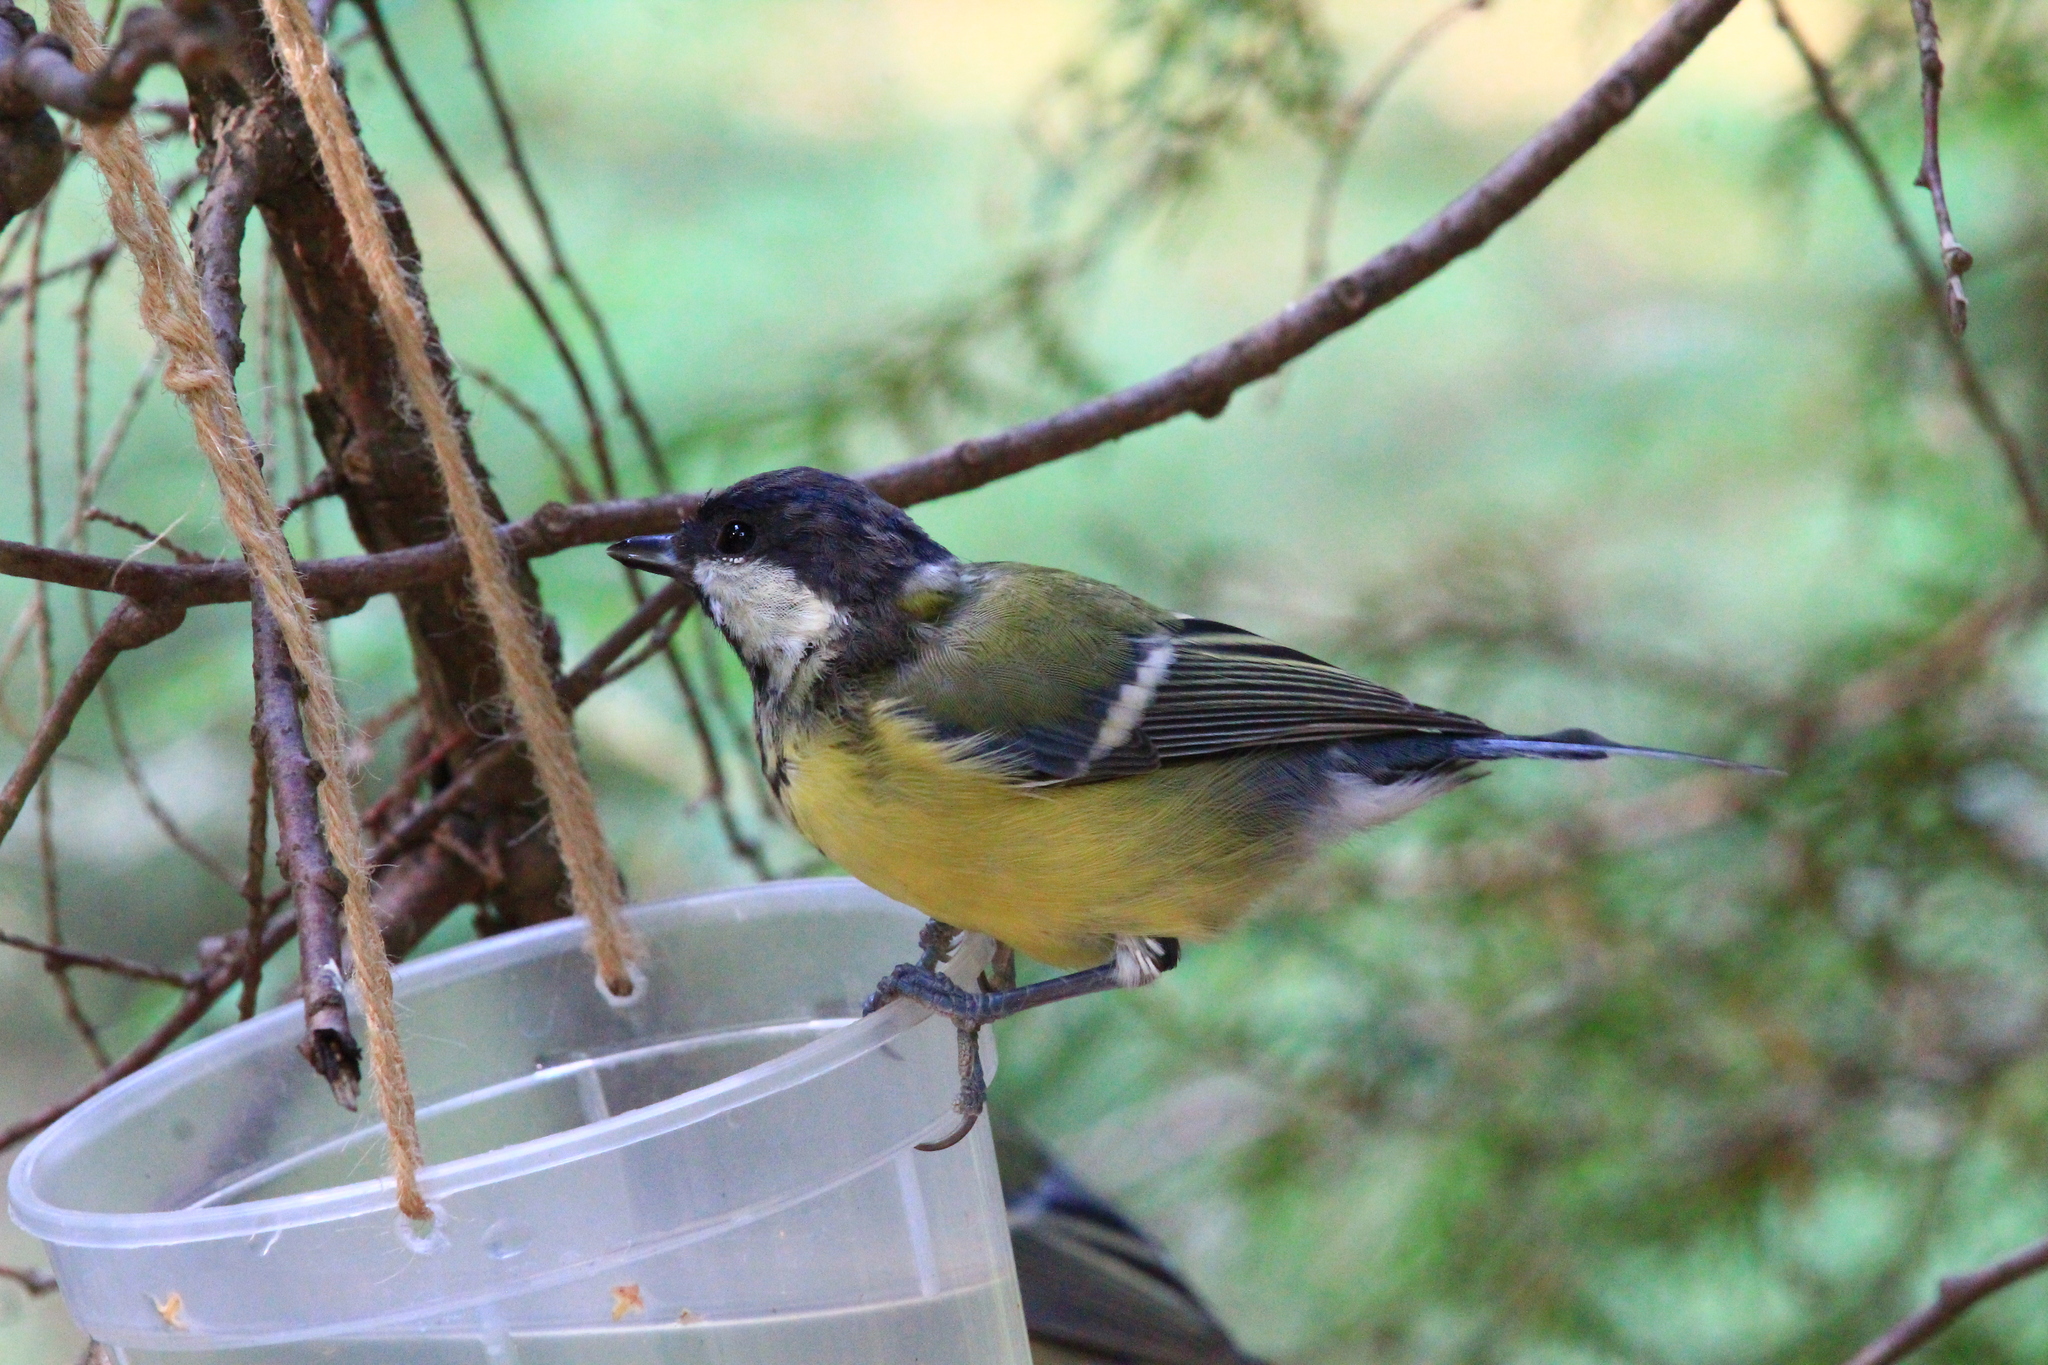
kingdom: Animalia
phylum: Chordata
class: Aves
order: Passeriformes
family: Paridae
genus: Parus
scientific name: Parus major
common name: Great tit
